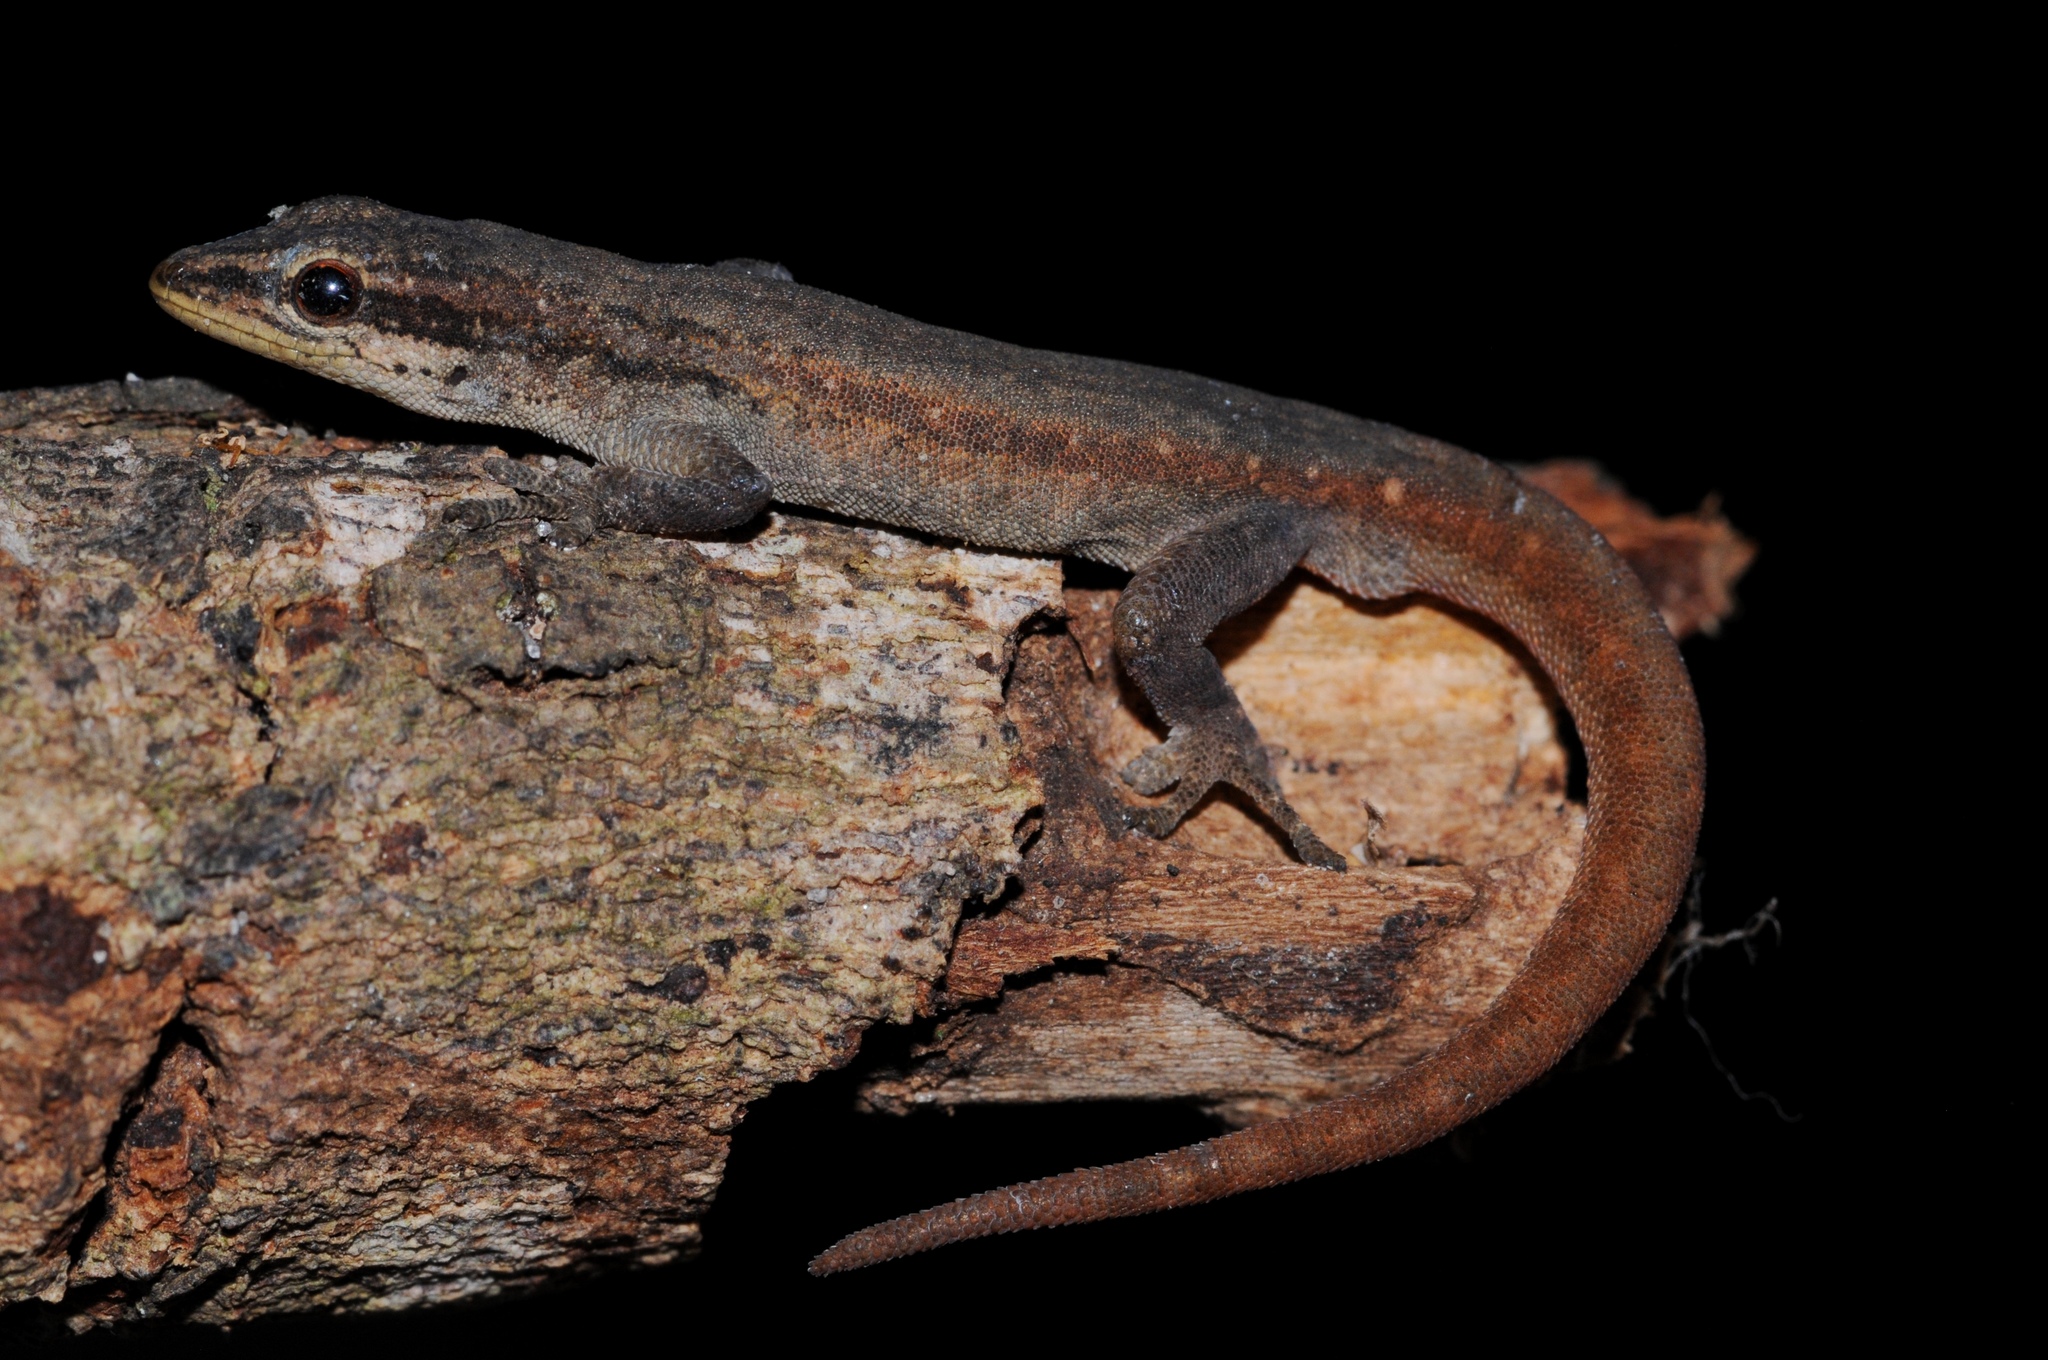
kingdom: Animalia
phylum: Chordata
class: Squamata
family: Gekkonidae
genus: Lygodactylus
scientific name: Lygodactylus grotei
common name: Grote’s dwarf gecko
